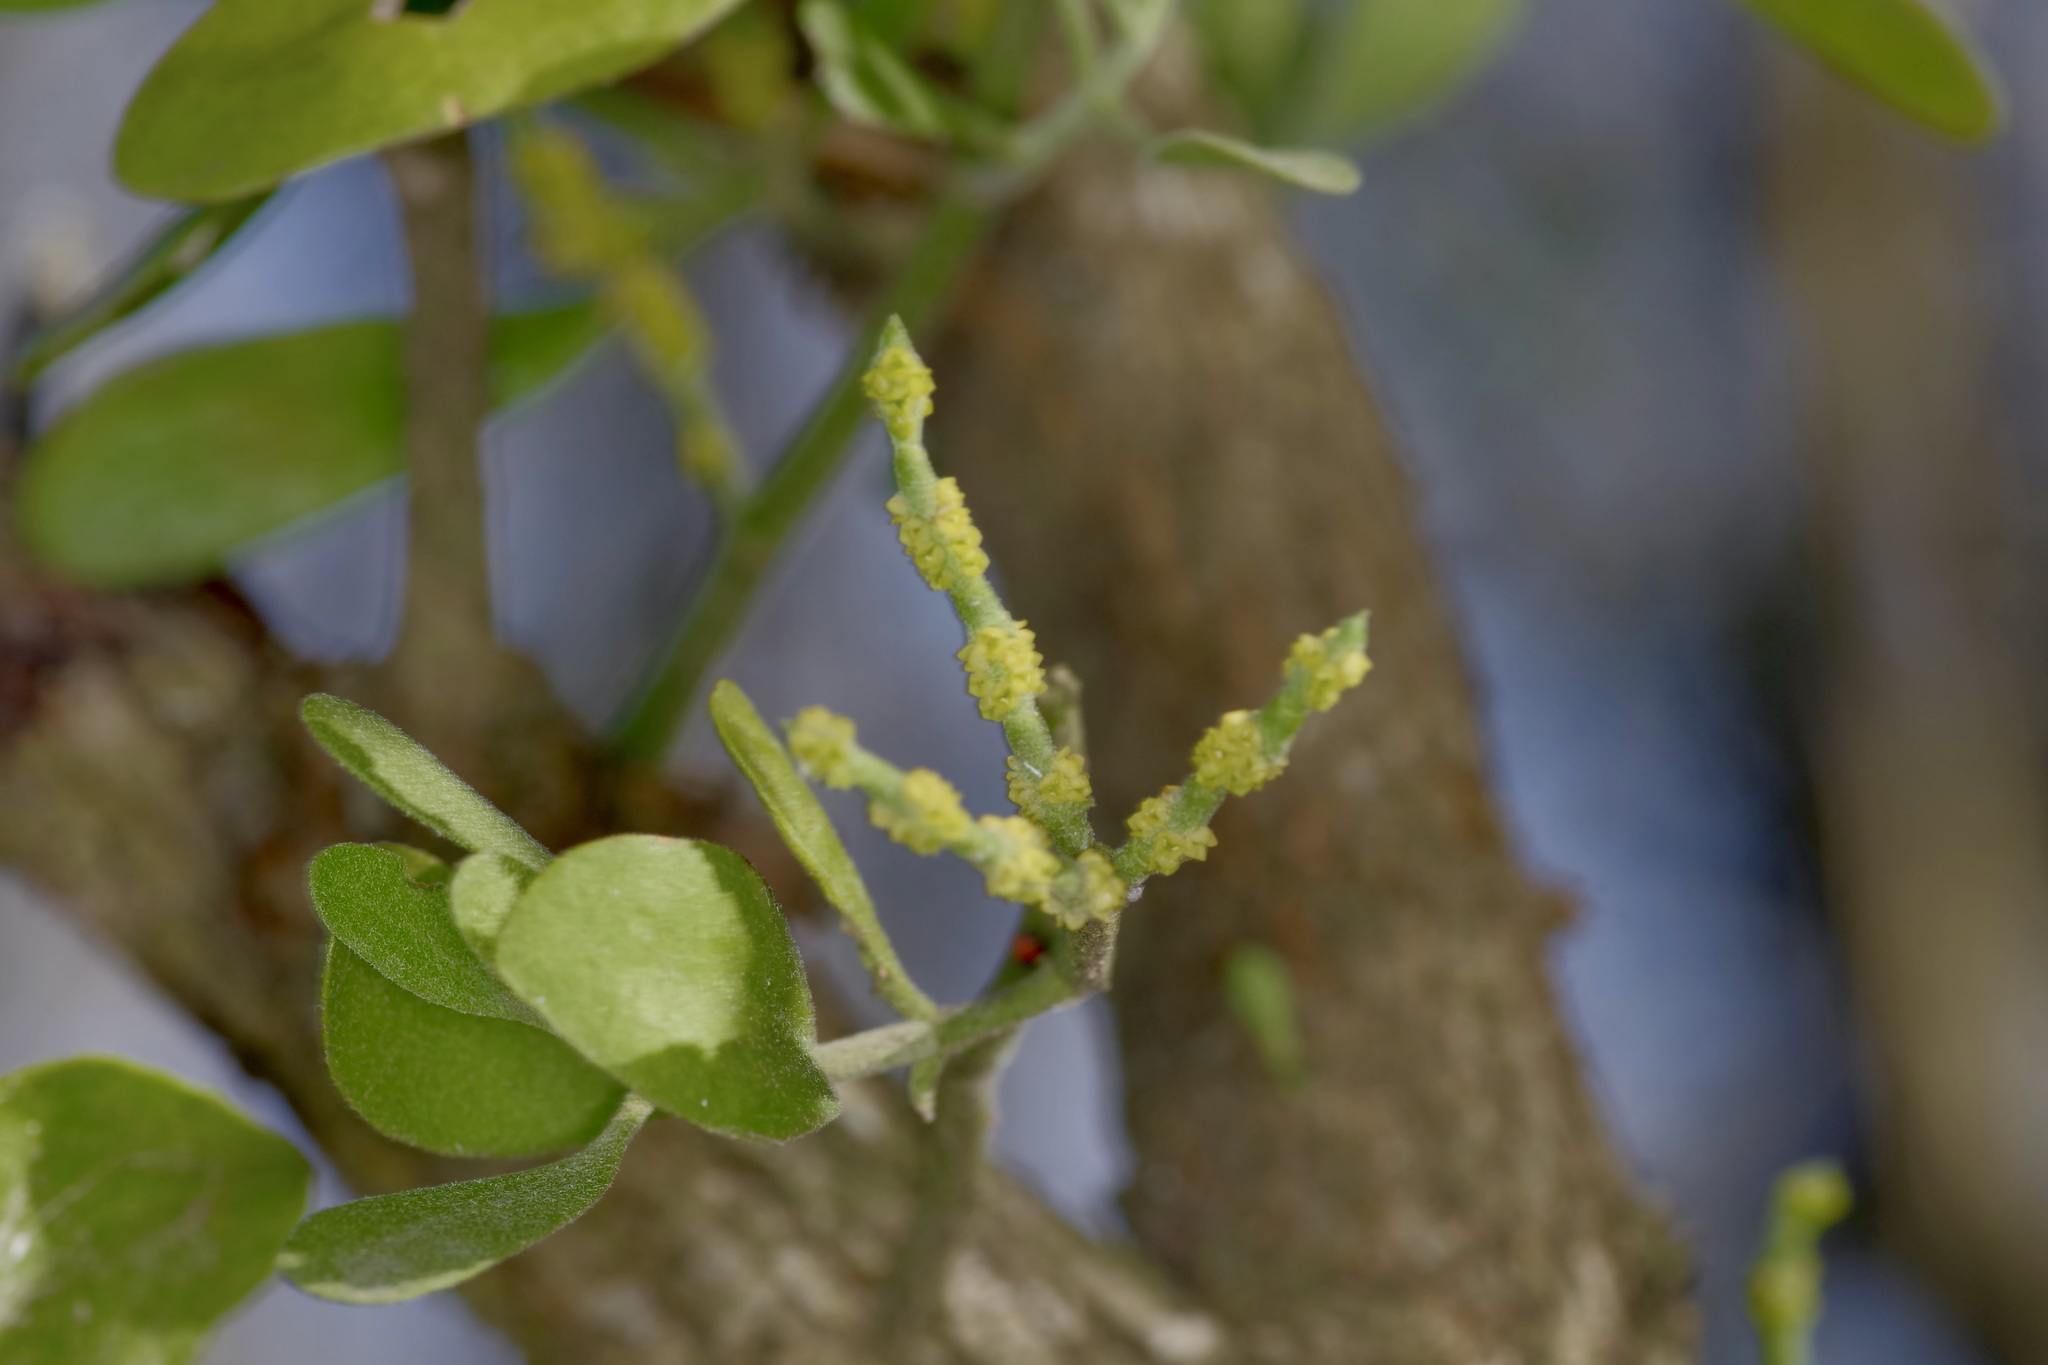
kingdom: Plantae
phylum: Tracheophyta
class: Magnoliopsida
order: Santalales
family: Viscaceae
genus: Phoradendron
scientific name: Phoradendron leucarpum
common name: Pacific mistletoe
